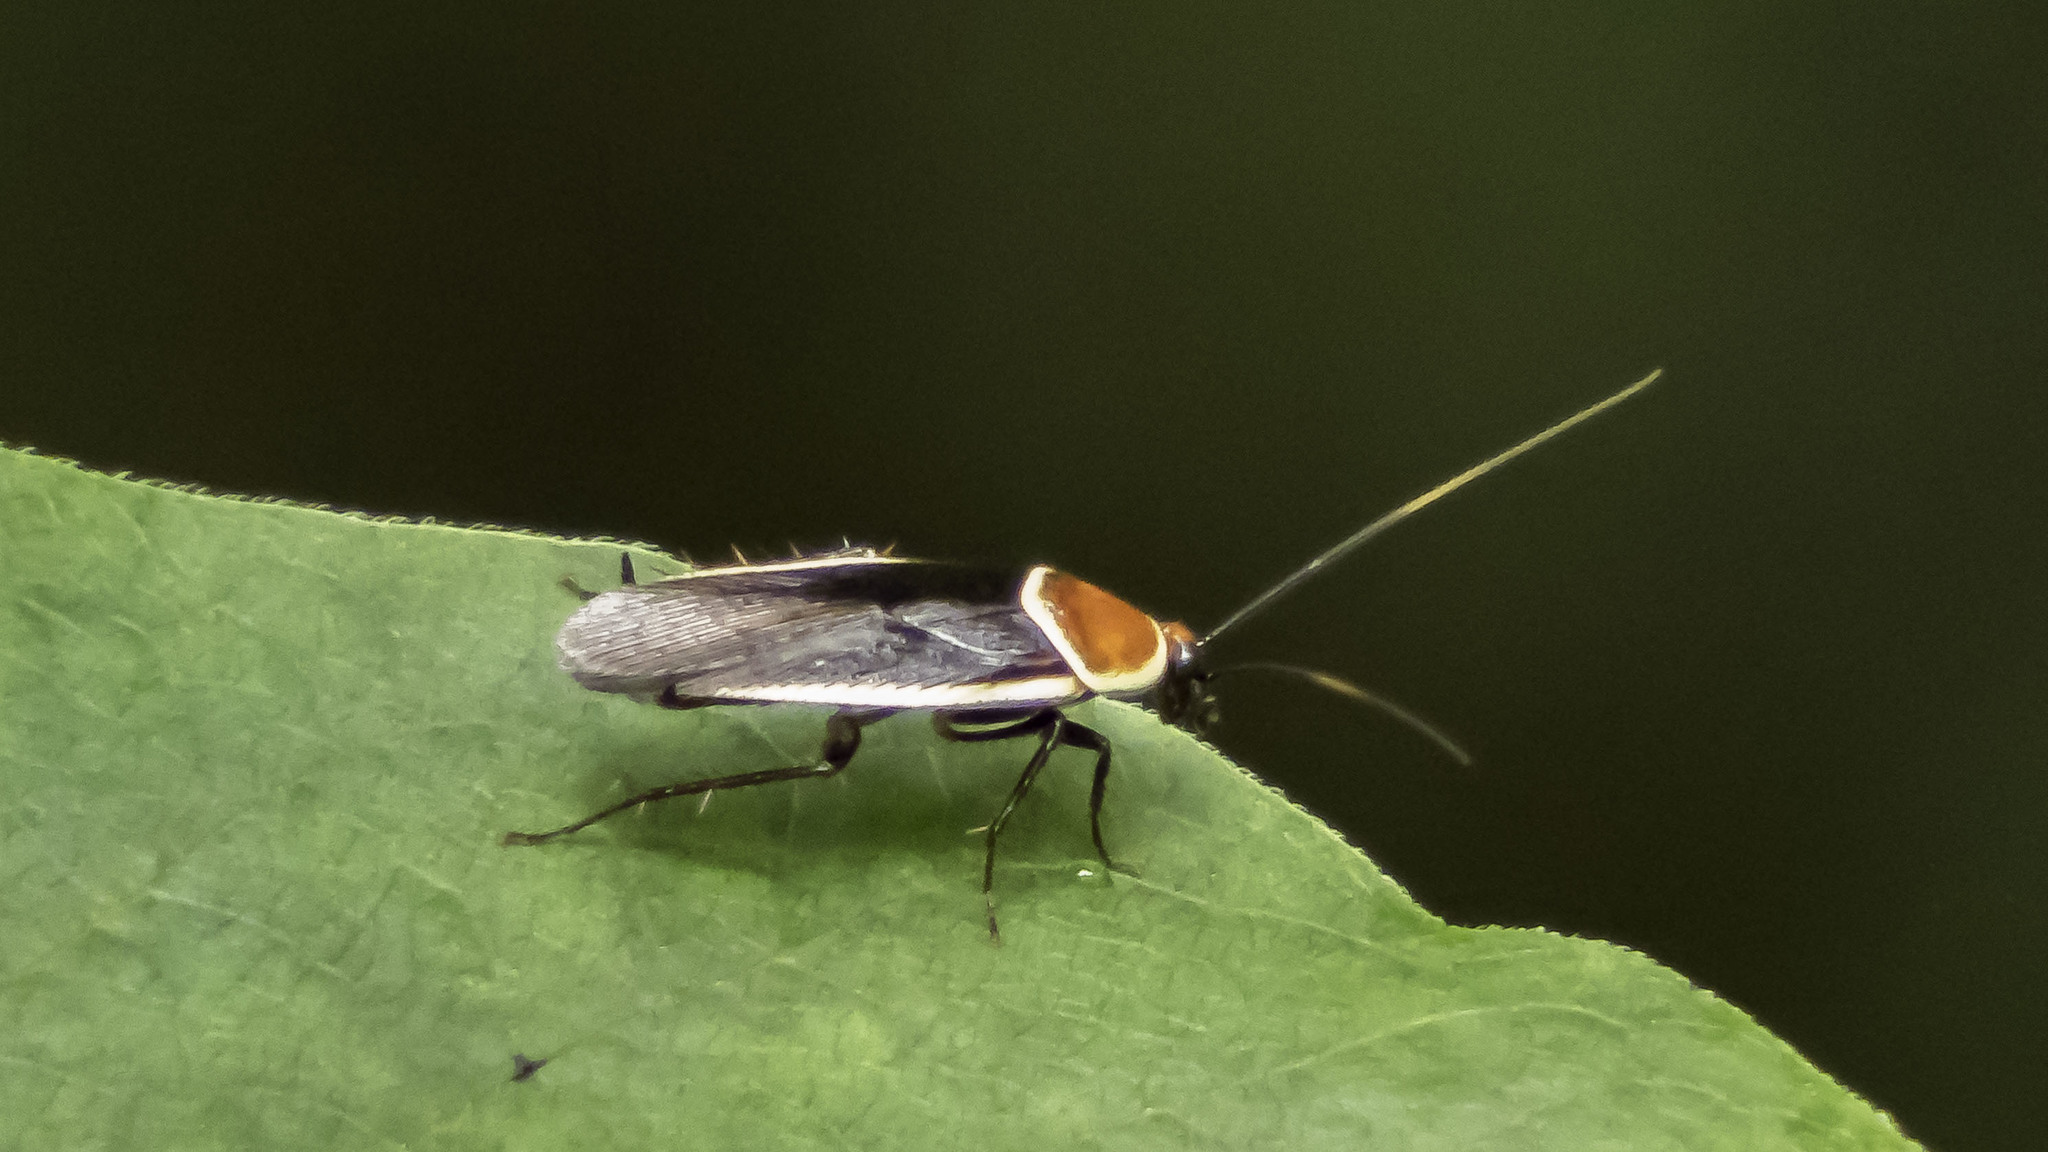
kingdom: Animalia
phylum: Arthropoda
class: Insecta
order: Blattodea
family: Ectobiidae
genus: Pseudomops
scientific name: Pseudomops septentrionalis
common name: Pale-bordered field cockroach
